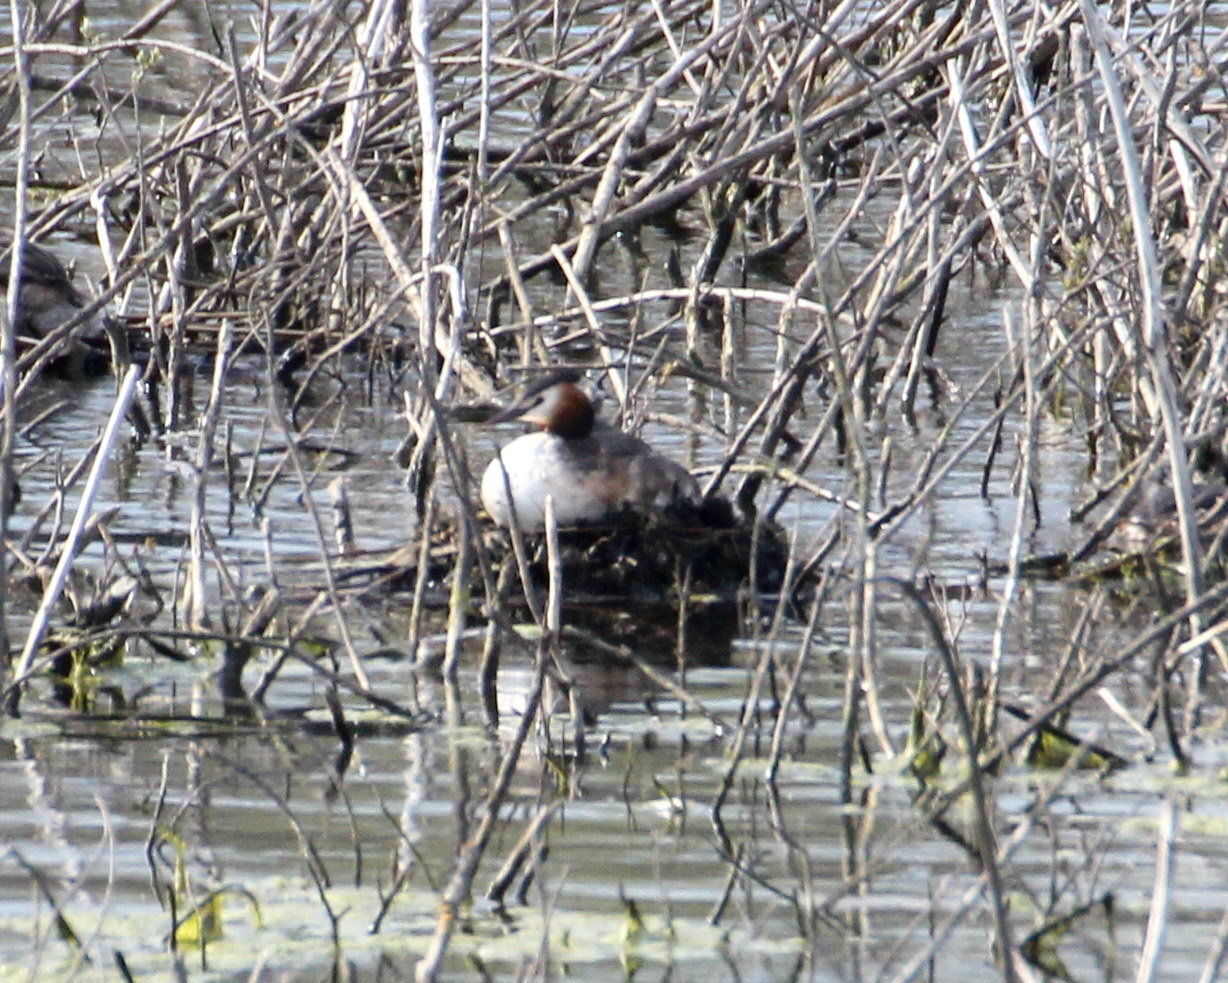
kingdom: Animalia
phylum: Chordata
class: Aves
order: Podicipediformes
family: Podicipedidae
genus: Podiceps
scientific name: Podiceps cristatus
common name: Great crested grebe
